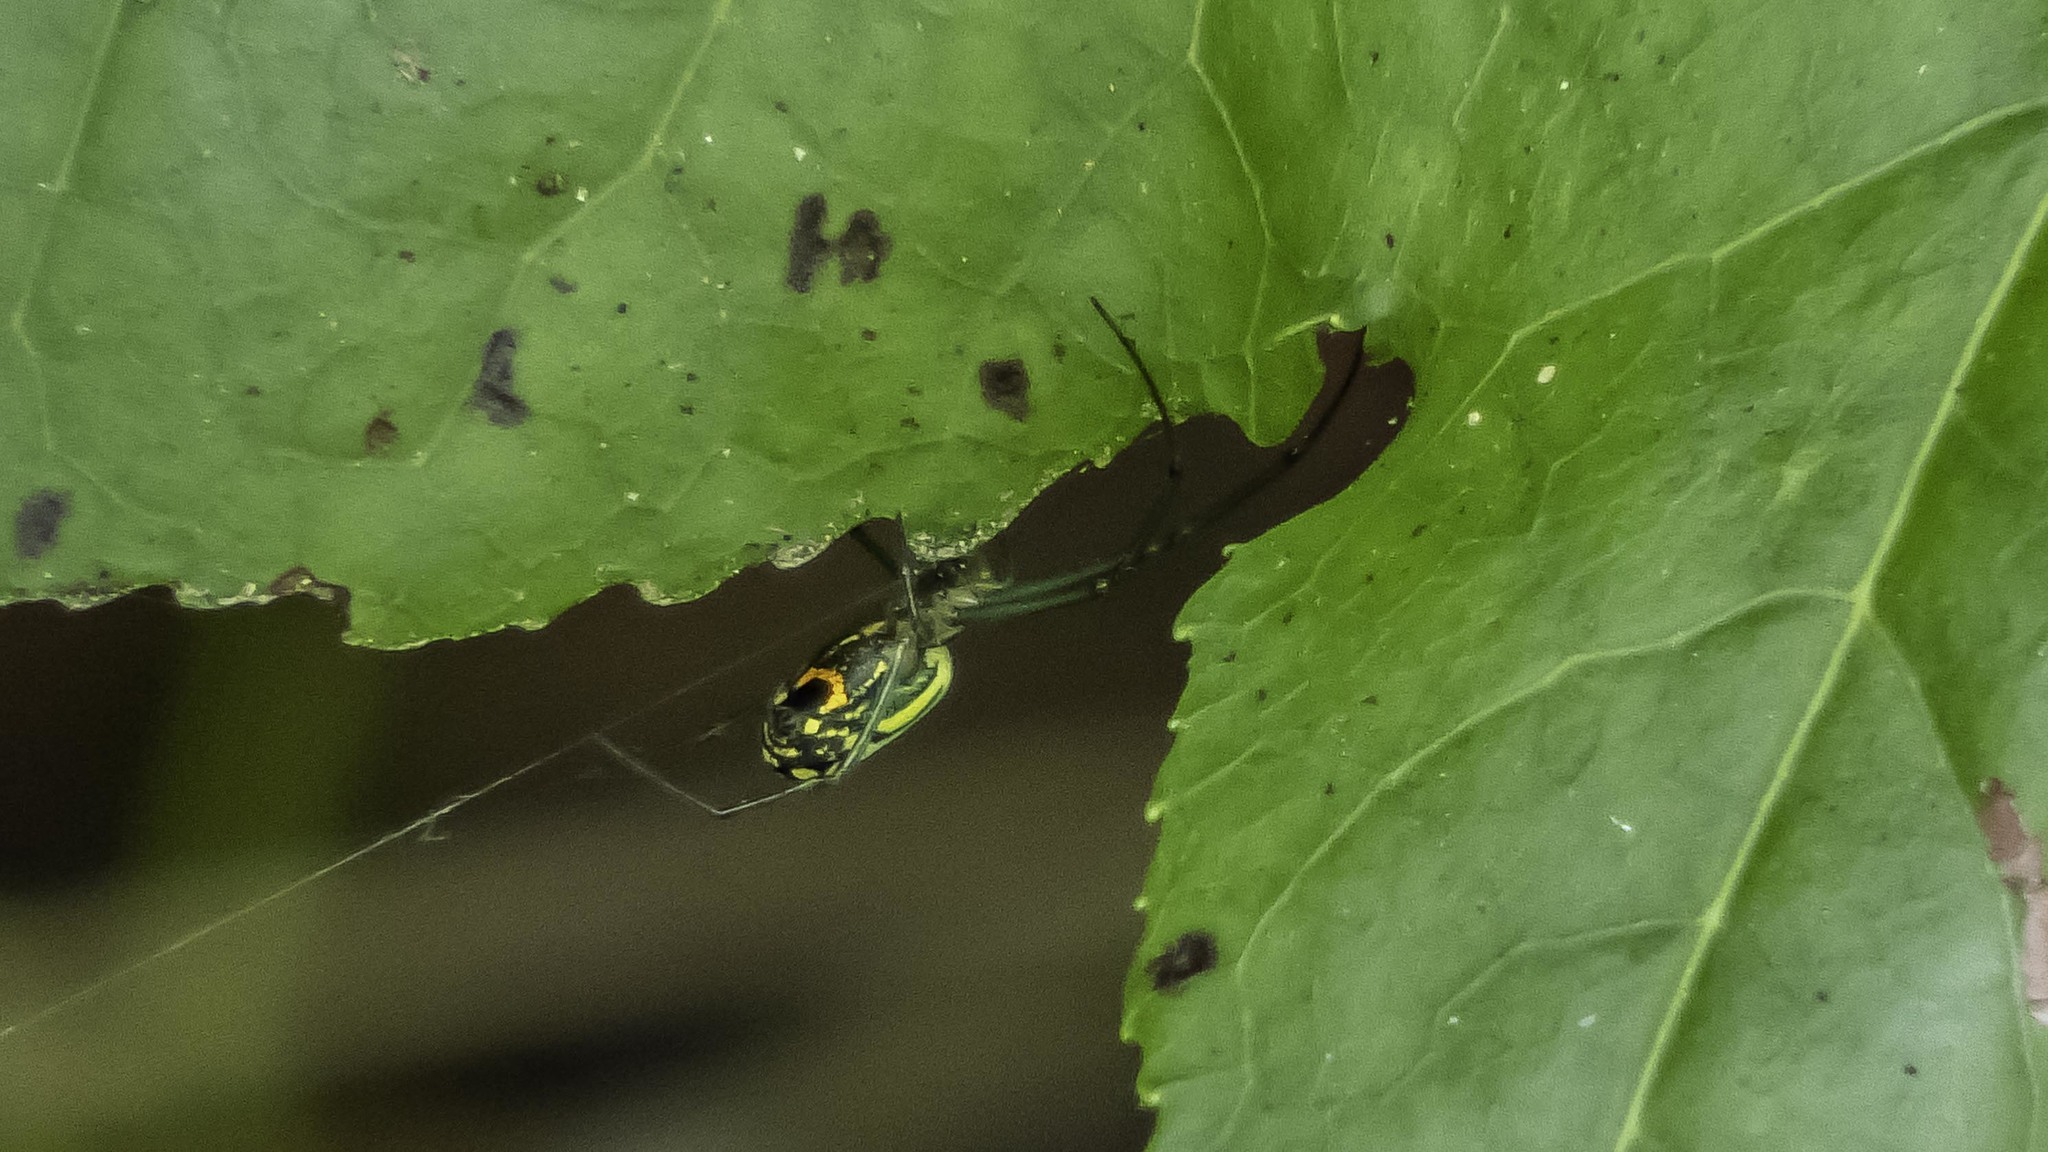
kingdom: Animalia
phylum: Arthropoda
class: Arachnida
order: Araneae
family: Tetragnathidae
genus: Leucauge
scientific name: Leucauge venusta
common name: Longjawed orb weavers
